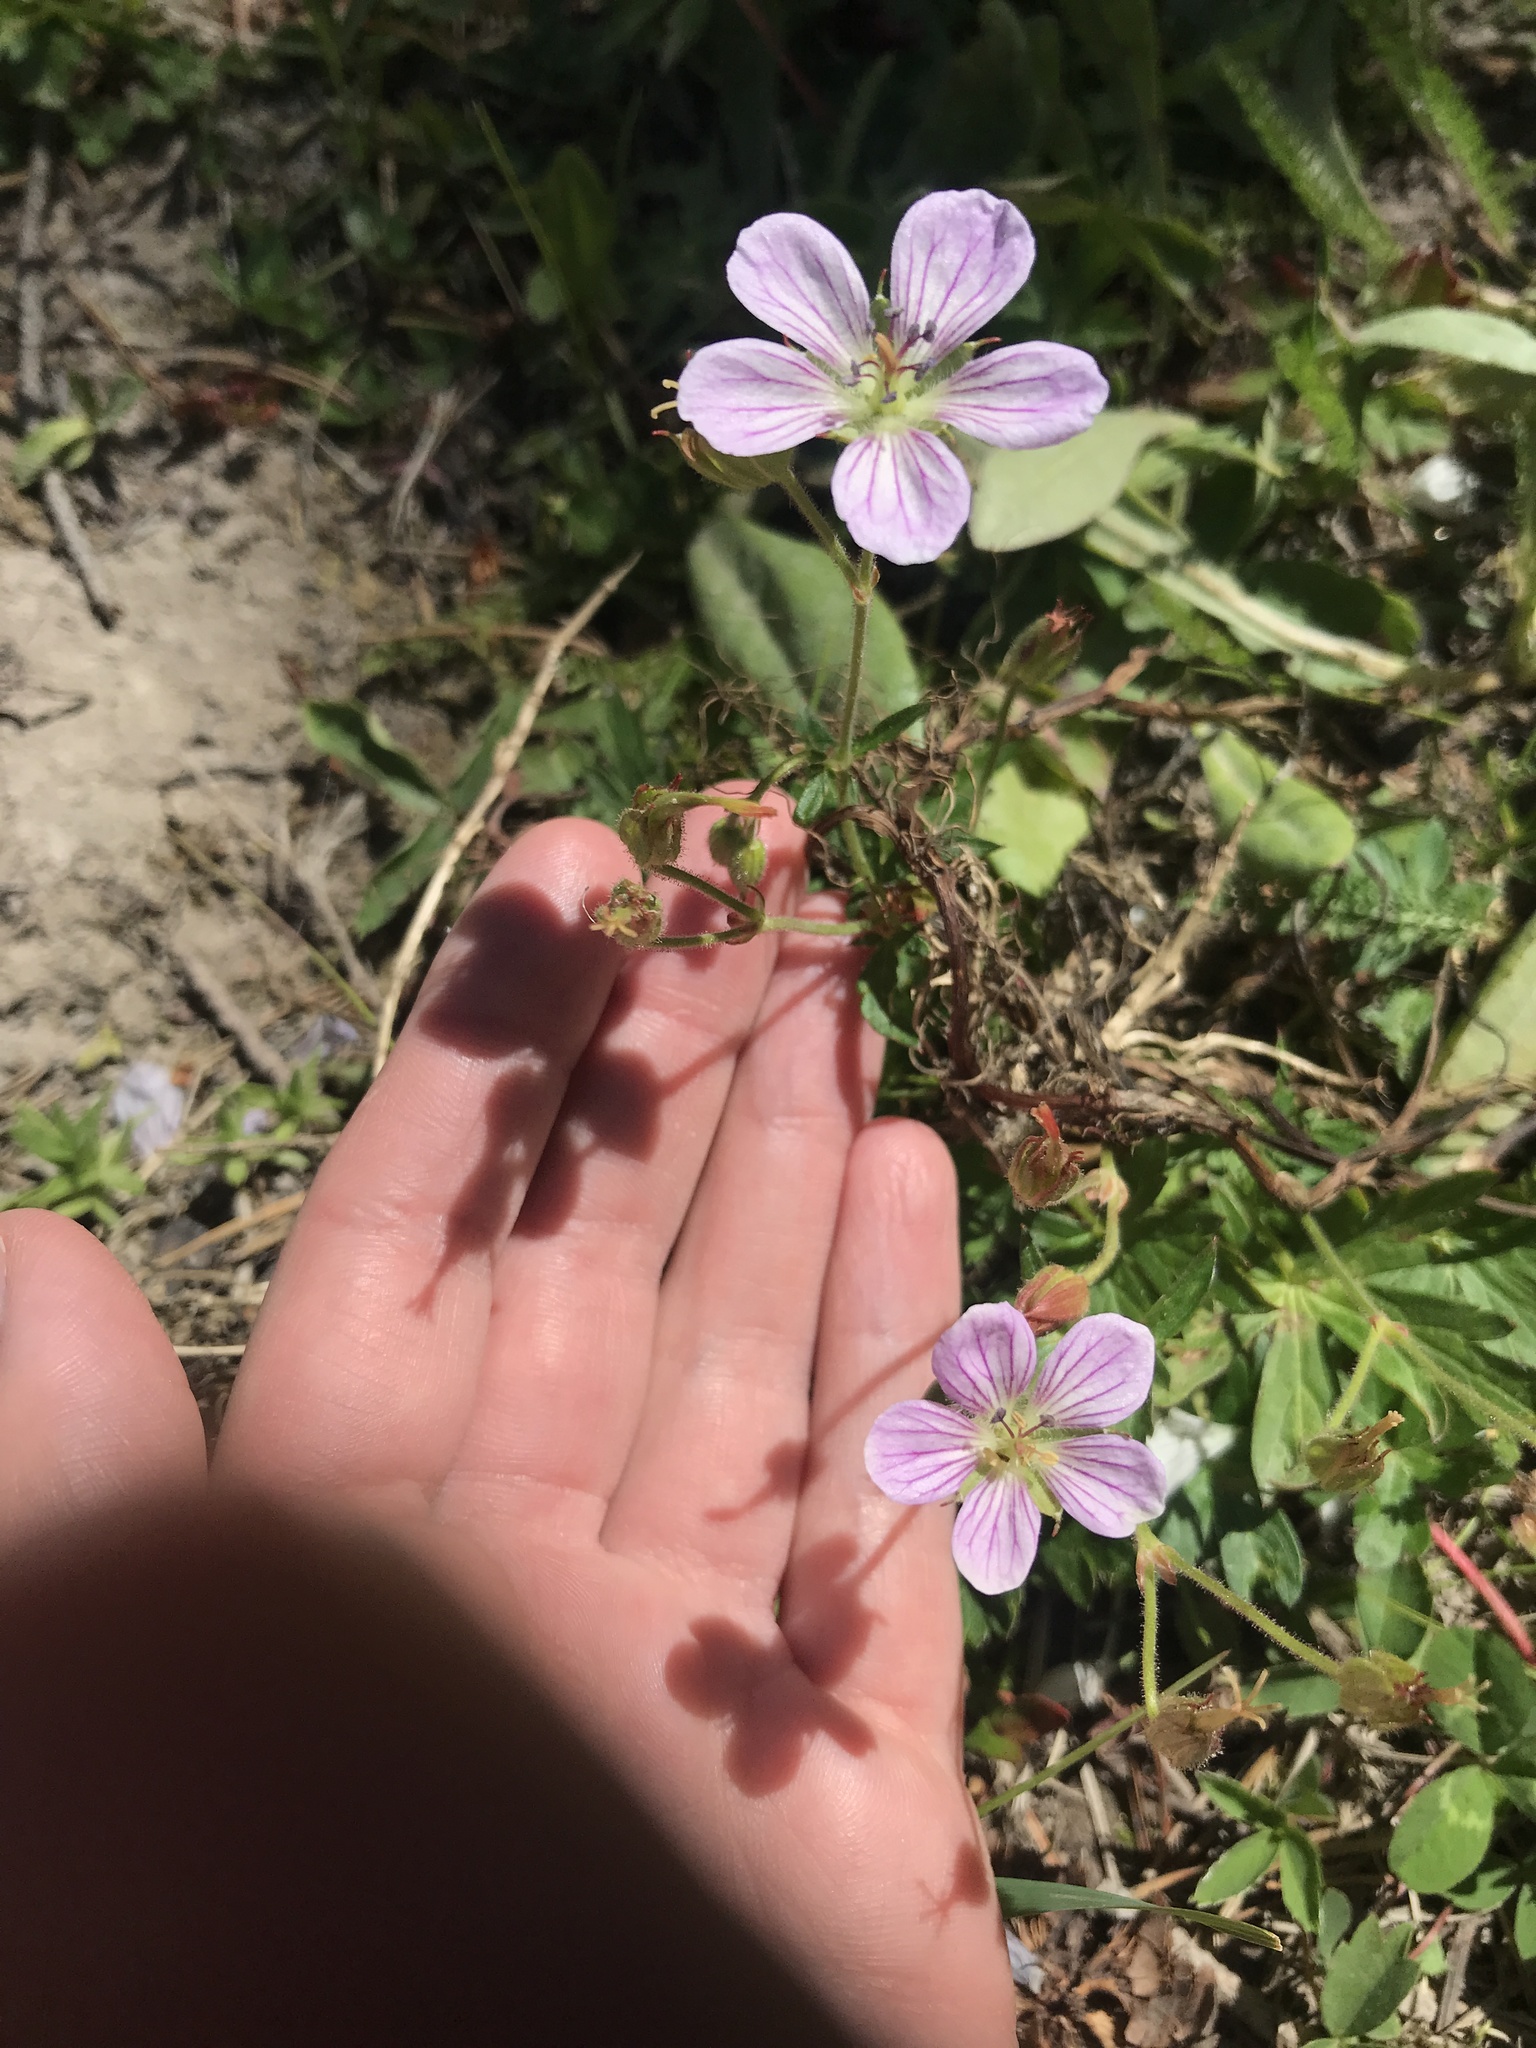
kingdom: Plantae
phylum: Tracheophyta
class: Magnoliopsida
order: Geraniales
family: Geraniaceae
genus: Geranium
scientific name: Geranium richardsonii
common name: Richardson's crane's-bill
